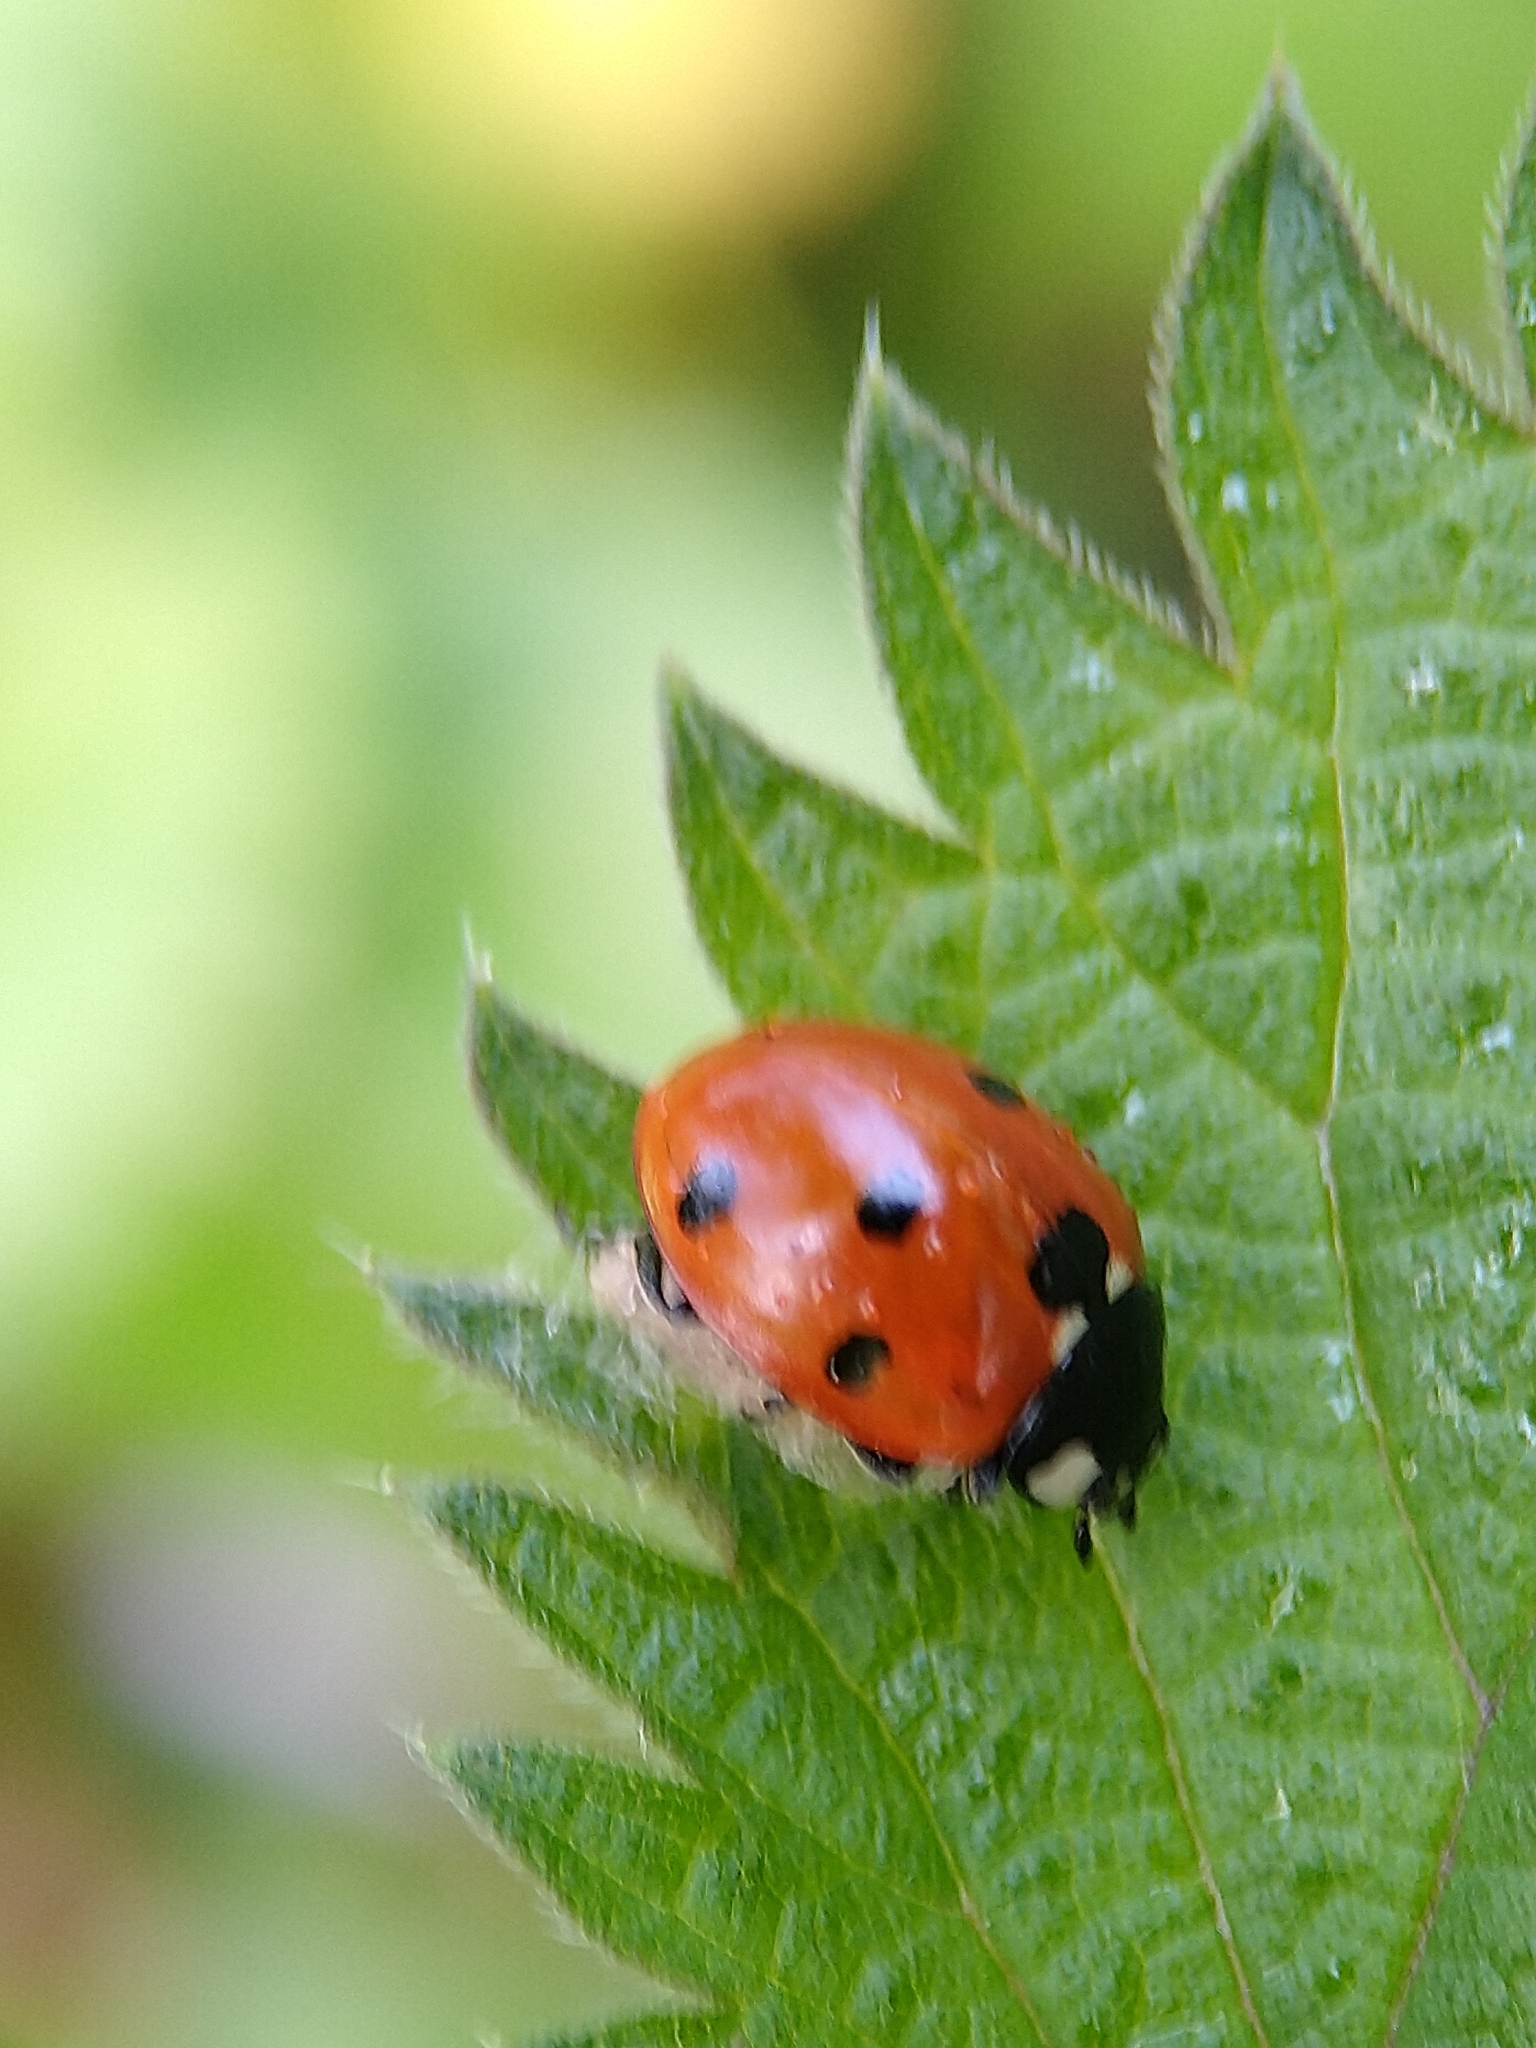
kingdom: Animalia
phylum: Arthropoda
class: Insecta
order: Coleoptera
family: Coccinellidae
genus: Coccinella
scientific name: Coccinella septempunctata
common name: Sevenspotted lady beetle
